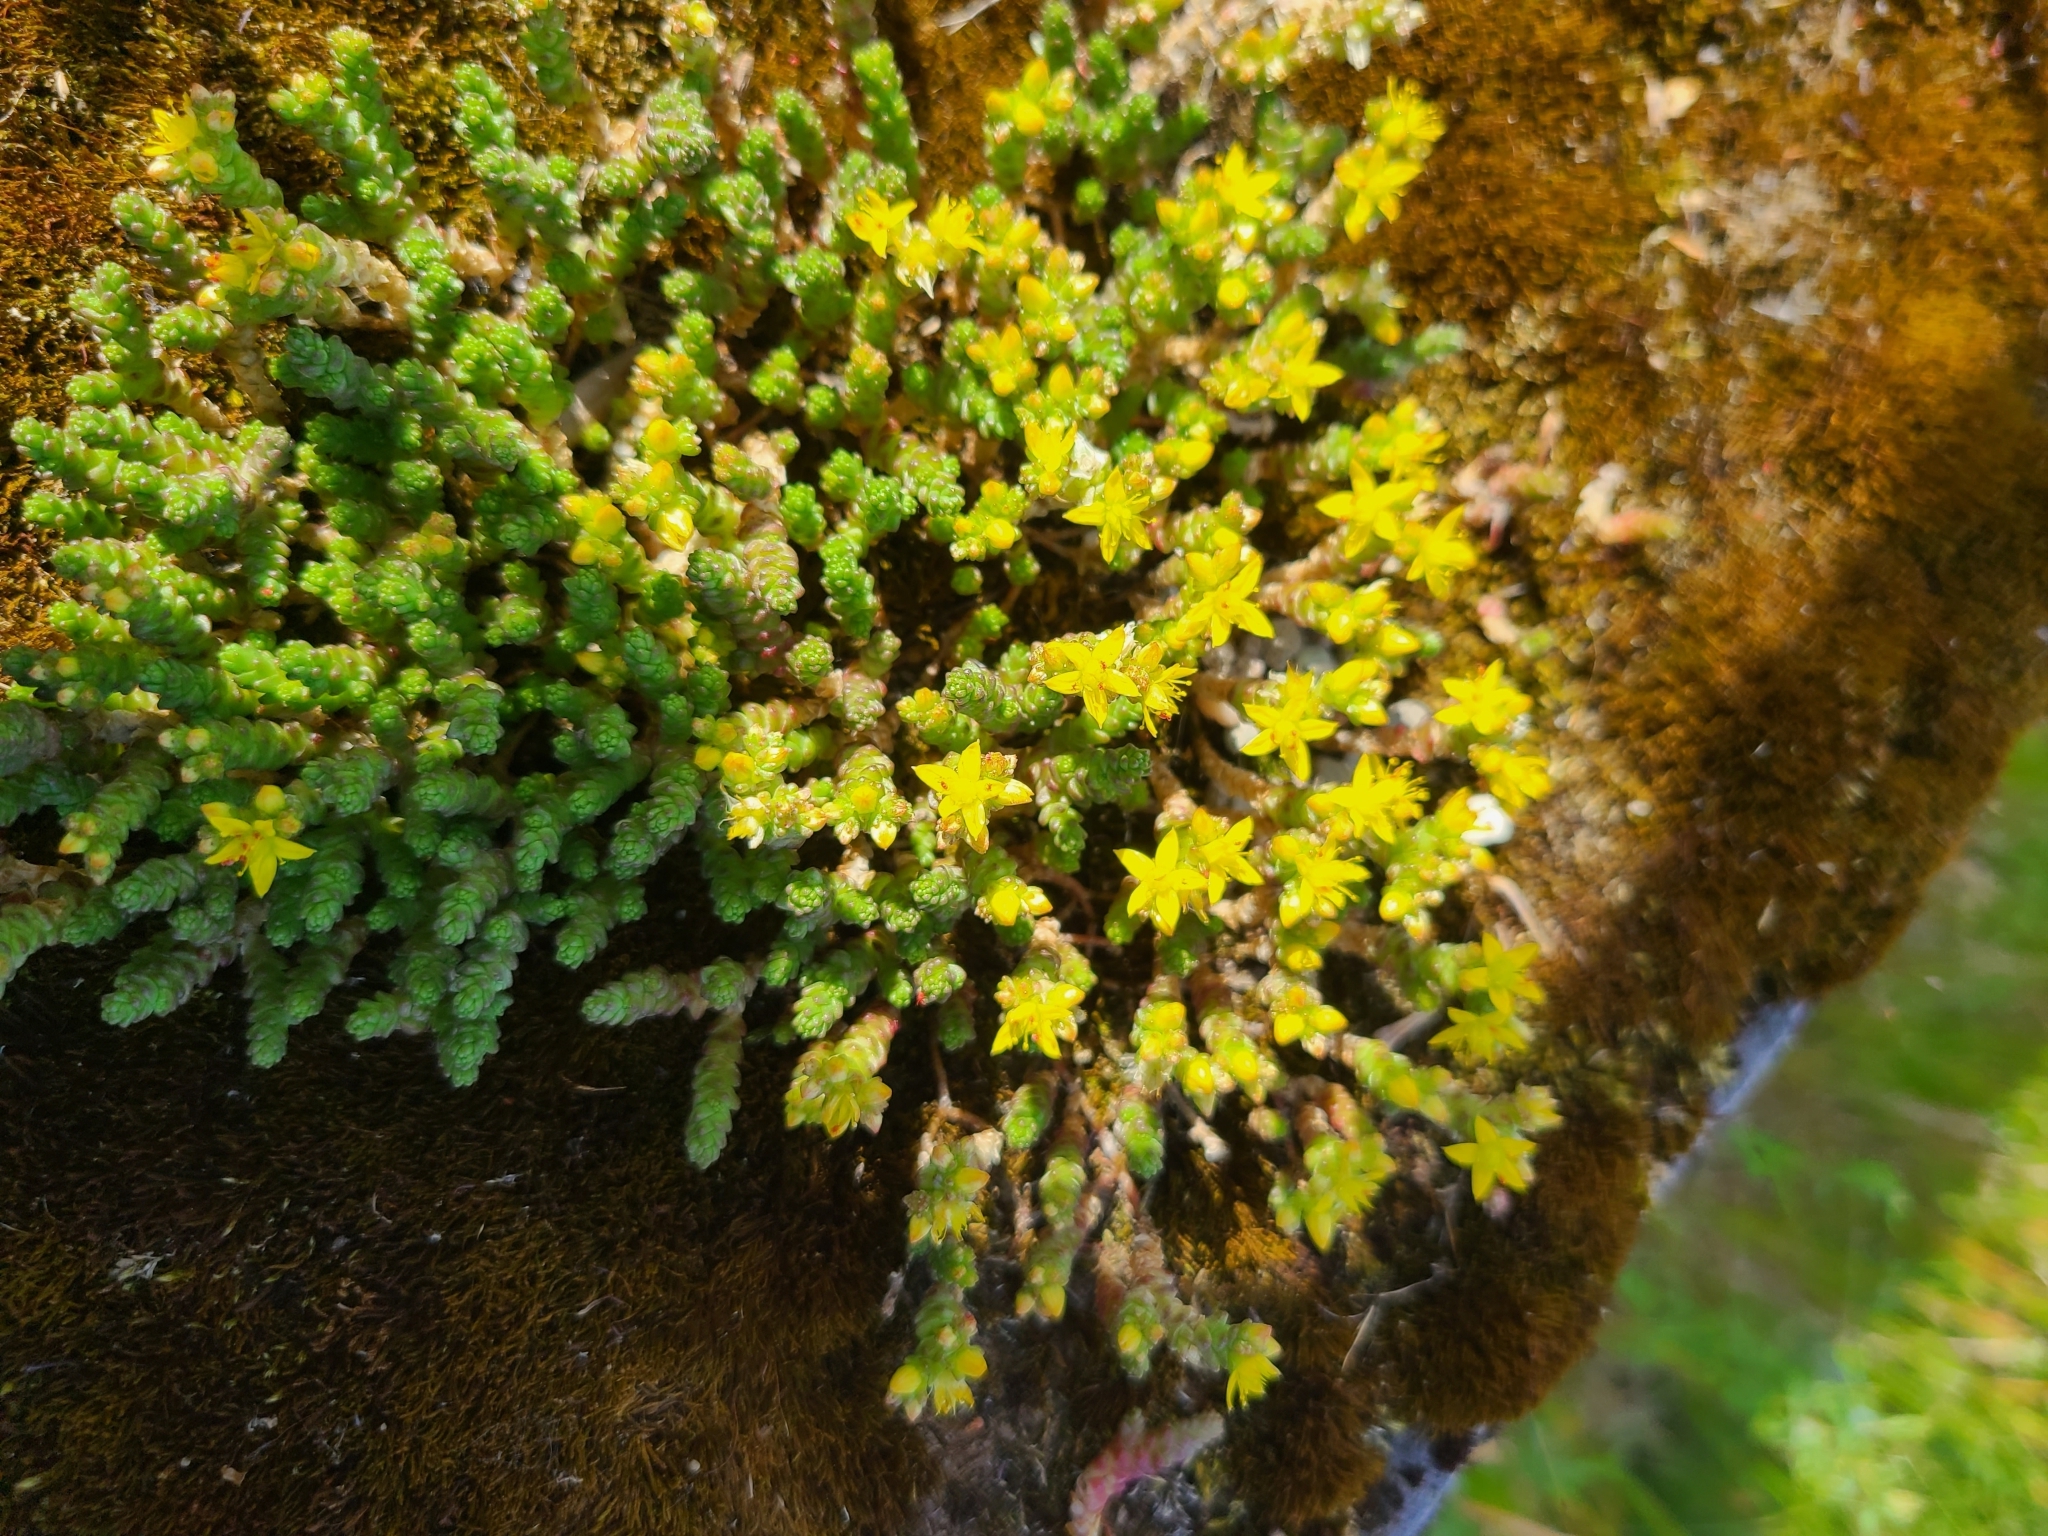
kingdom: Plantae
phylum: Tracheophyta
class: Magnoliopsida
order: Saxifragales
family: Crassulaceae
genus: Sedum
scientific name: Sedum acre
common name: Biting stonecrop
